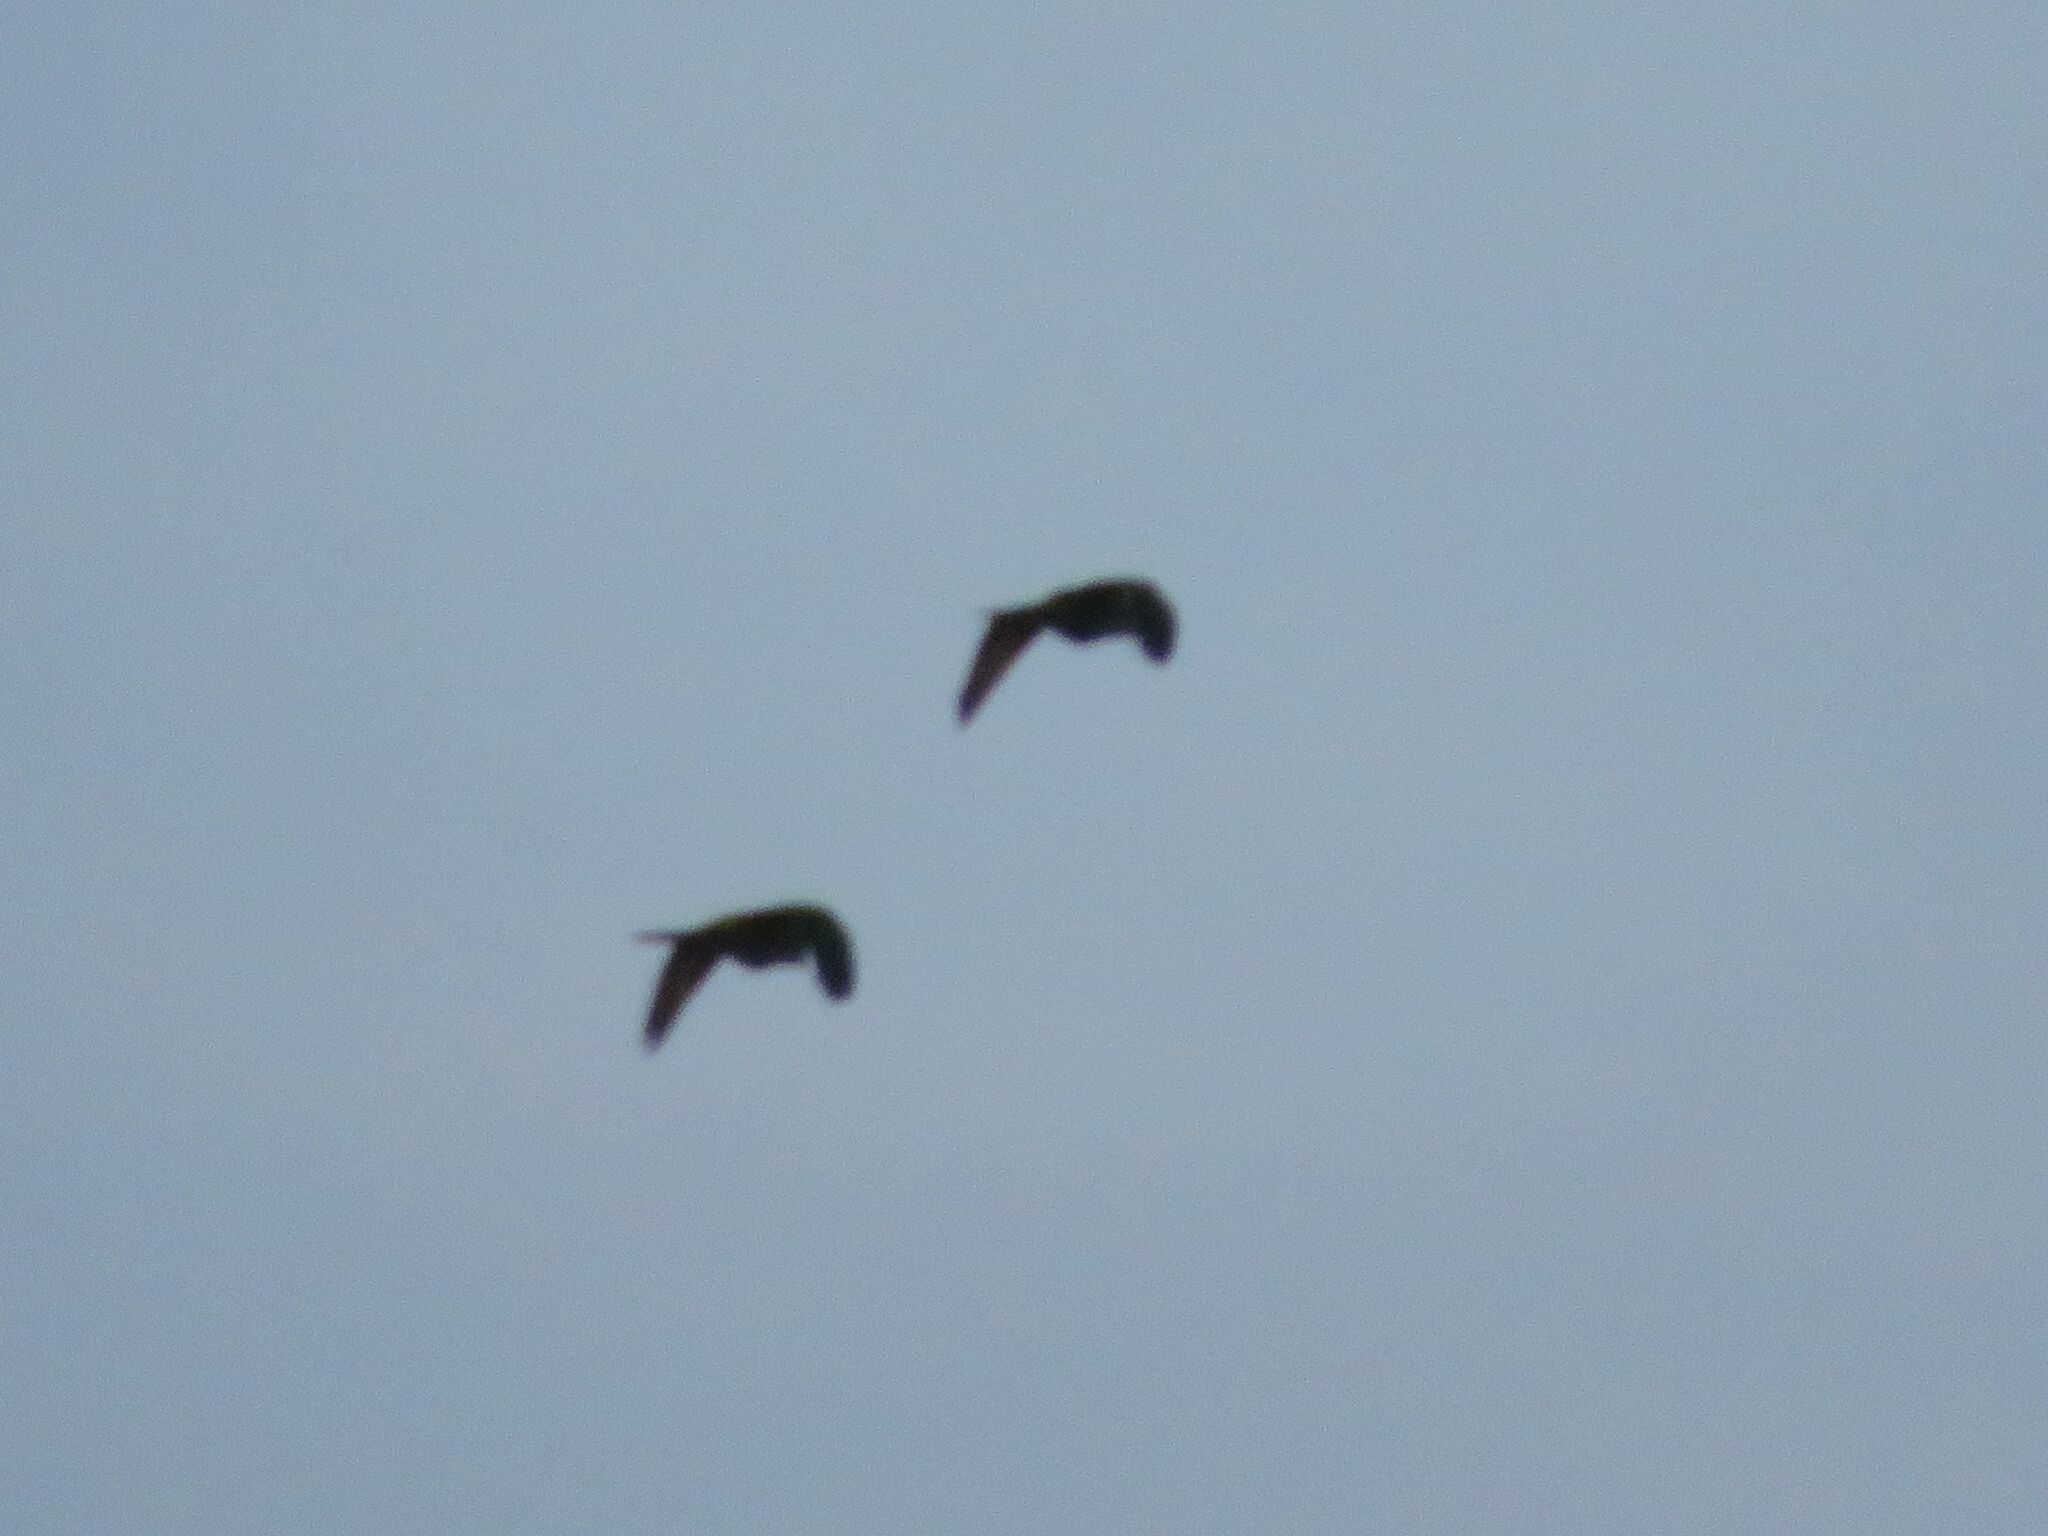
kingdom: Animalia
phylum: Chordata
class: Aves
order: Psittaciformes
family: Psittacidae
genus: Aratinga
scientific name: Aratinga leucophthalma
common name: White-eyed parakeet
